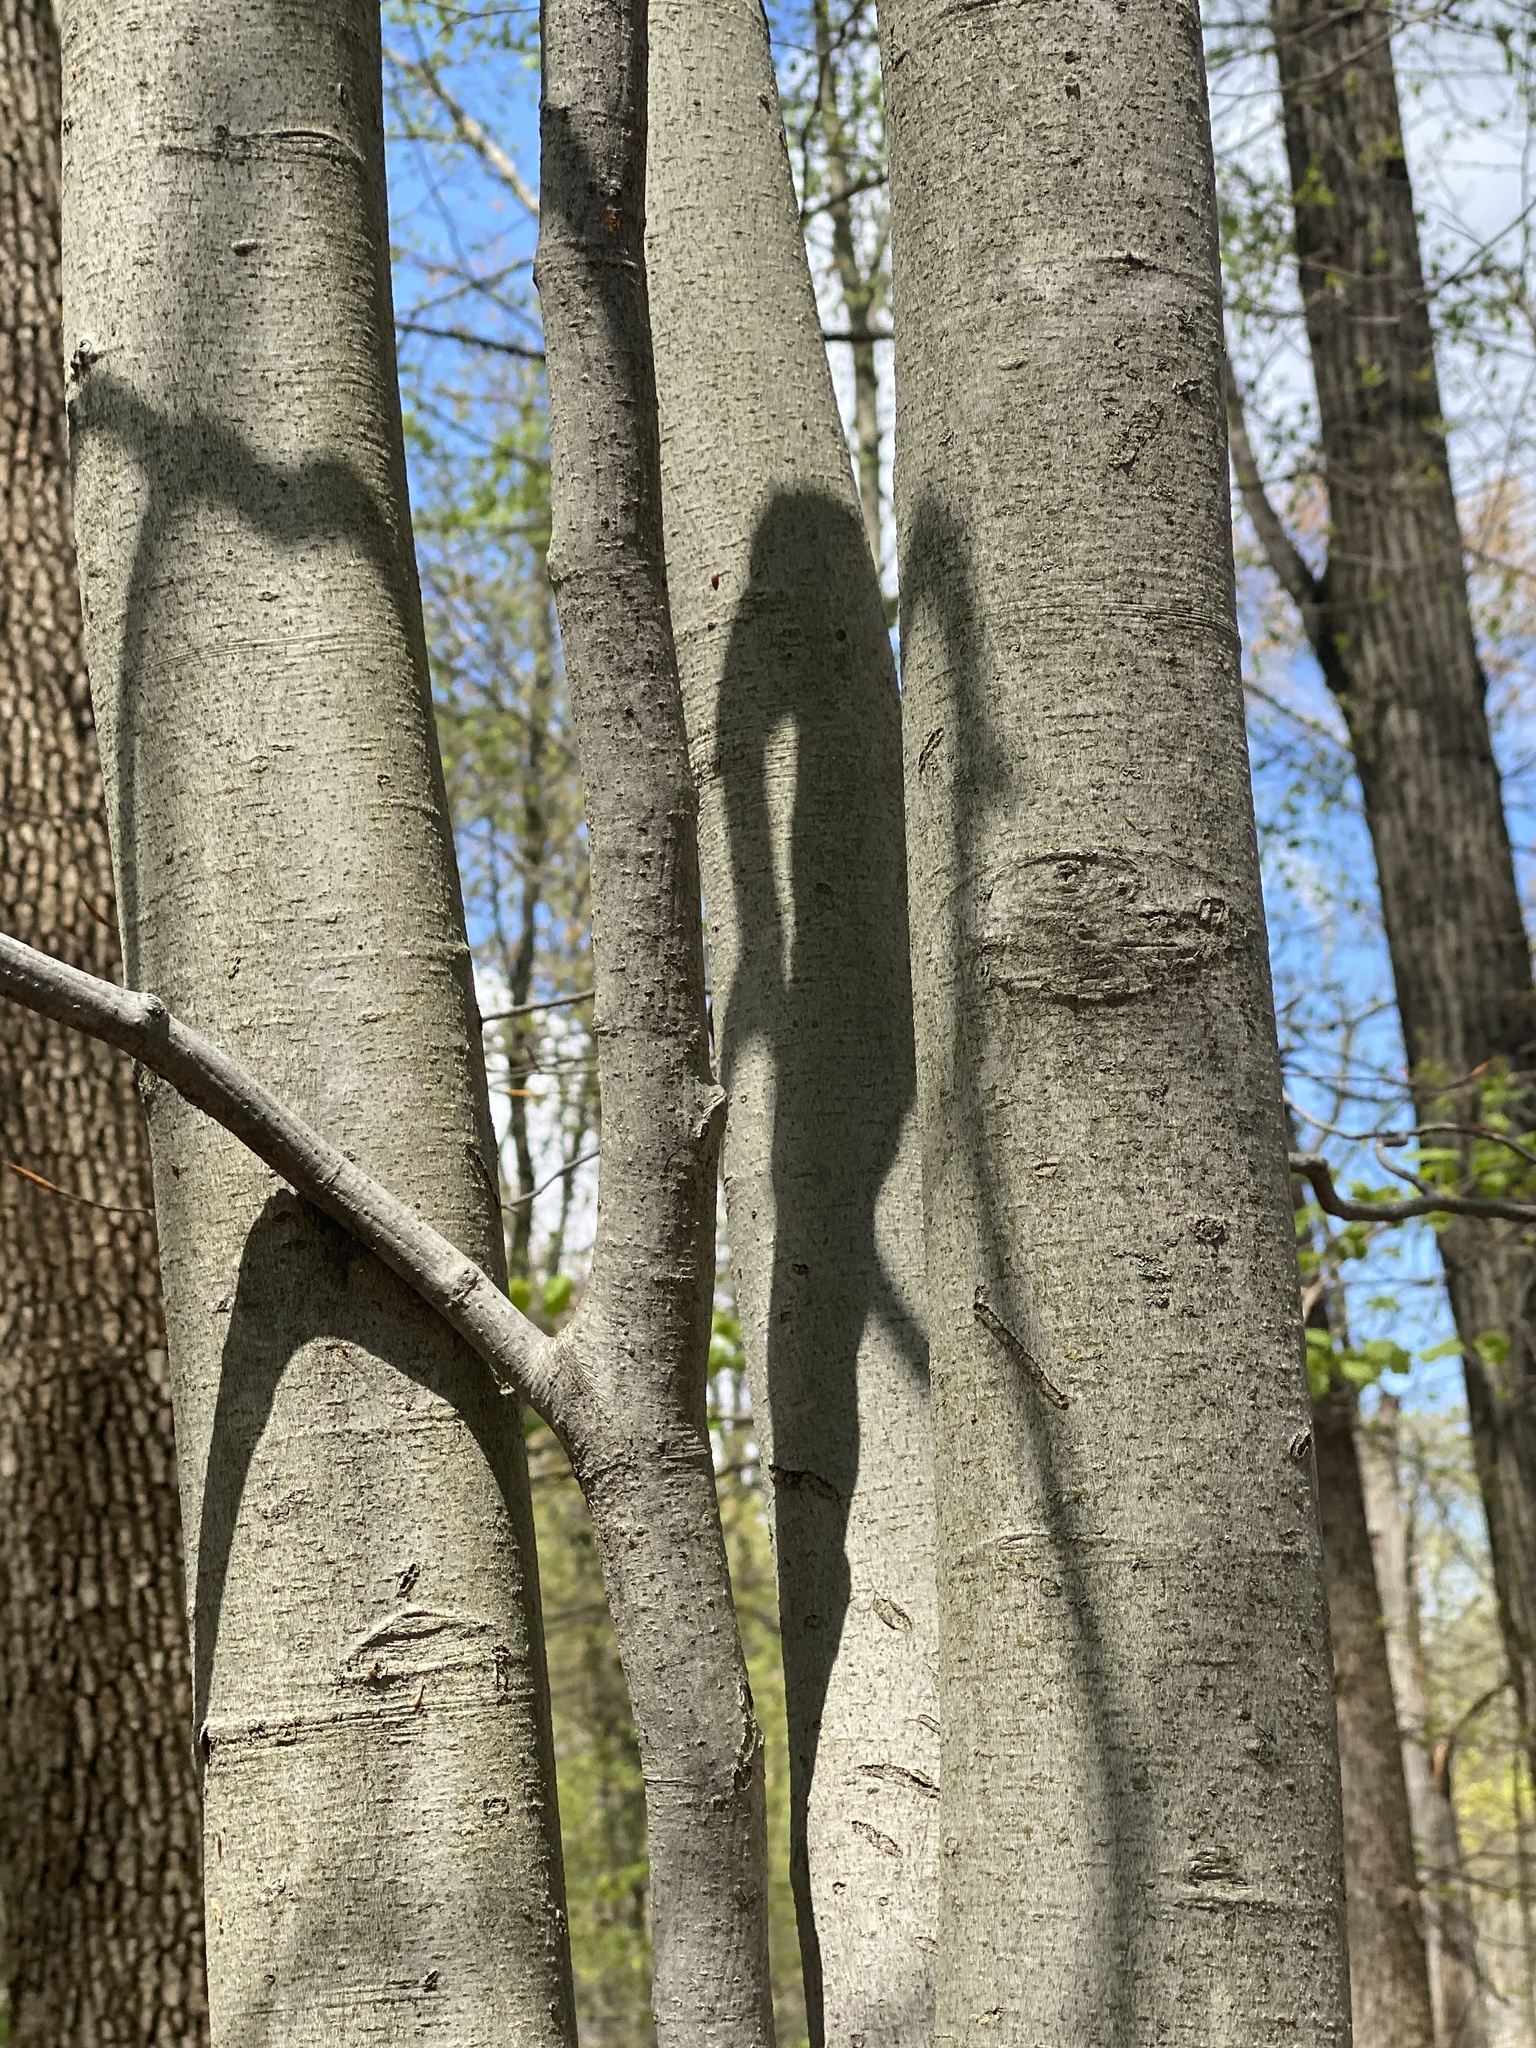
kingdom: Plantae
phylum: Tracheophyta
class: Magnoliopsida
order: Fagales
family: Fagaceae
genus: Fagus
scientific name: Fagus grandifolia
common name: American beech
